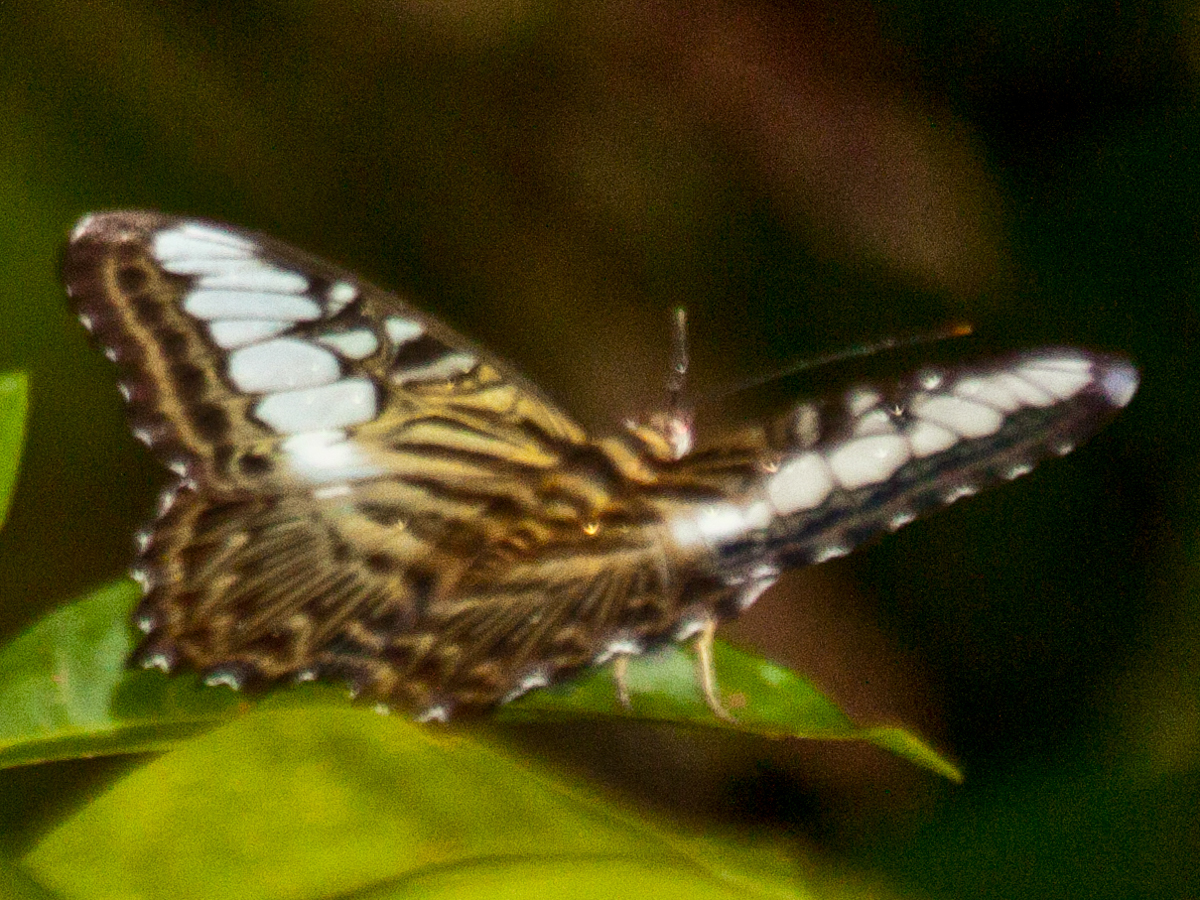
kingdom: Animalia
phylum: Arthropoda
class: Insecta
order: Lepidoptera
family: Nymphalidae
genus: Kallima
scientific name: Kallima sylvia
